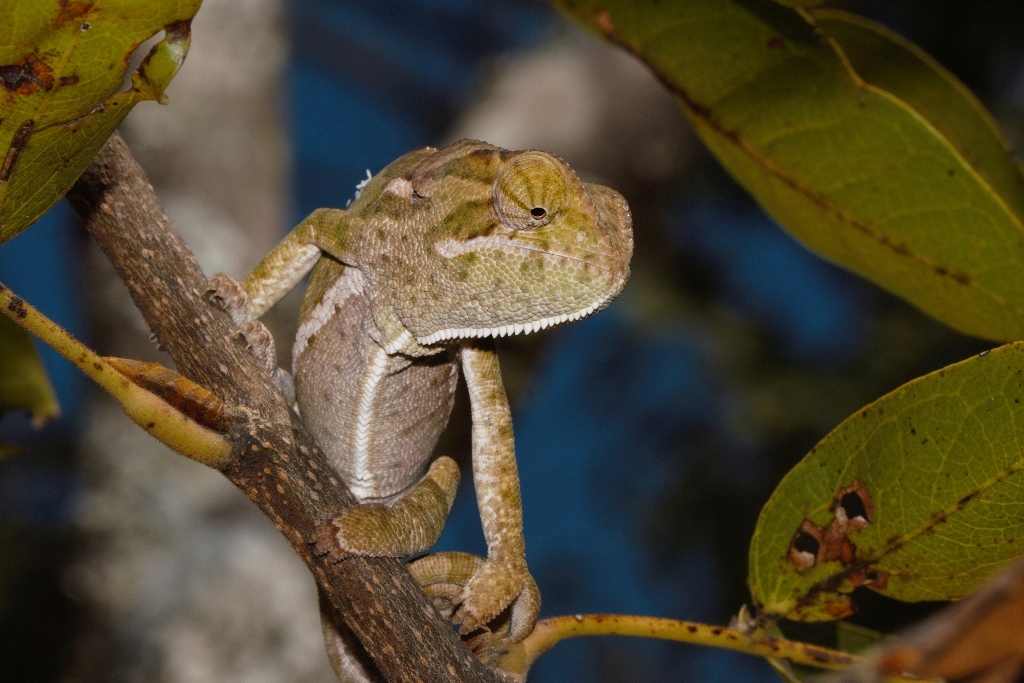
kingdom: Animalia
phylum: Chordata
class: Squamata
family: Chamaeleonidae
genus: Chamaeleo
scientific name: Chamaeleo dilepis
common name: Flapneck chameleon
